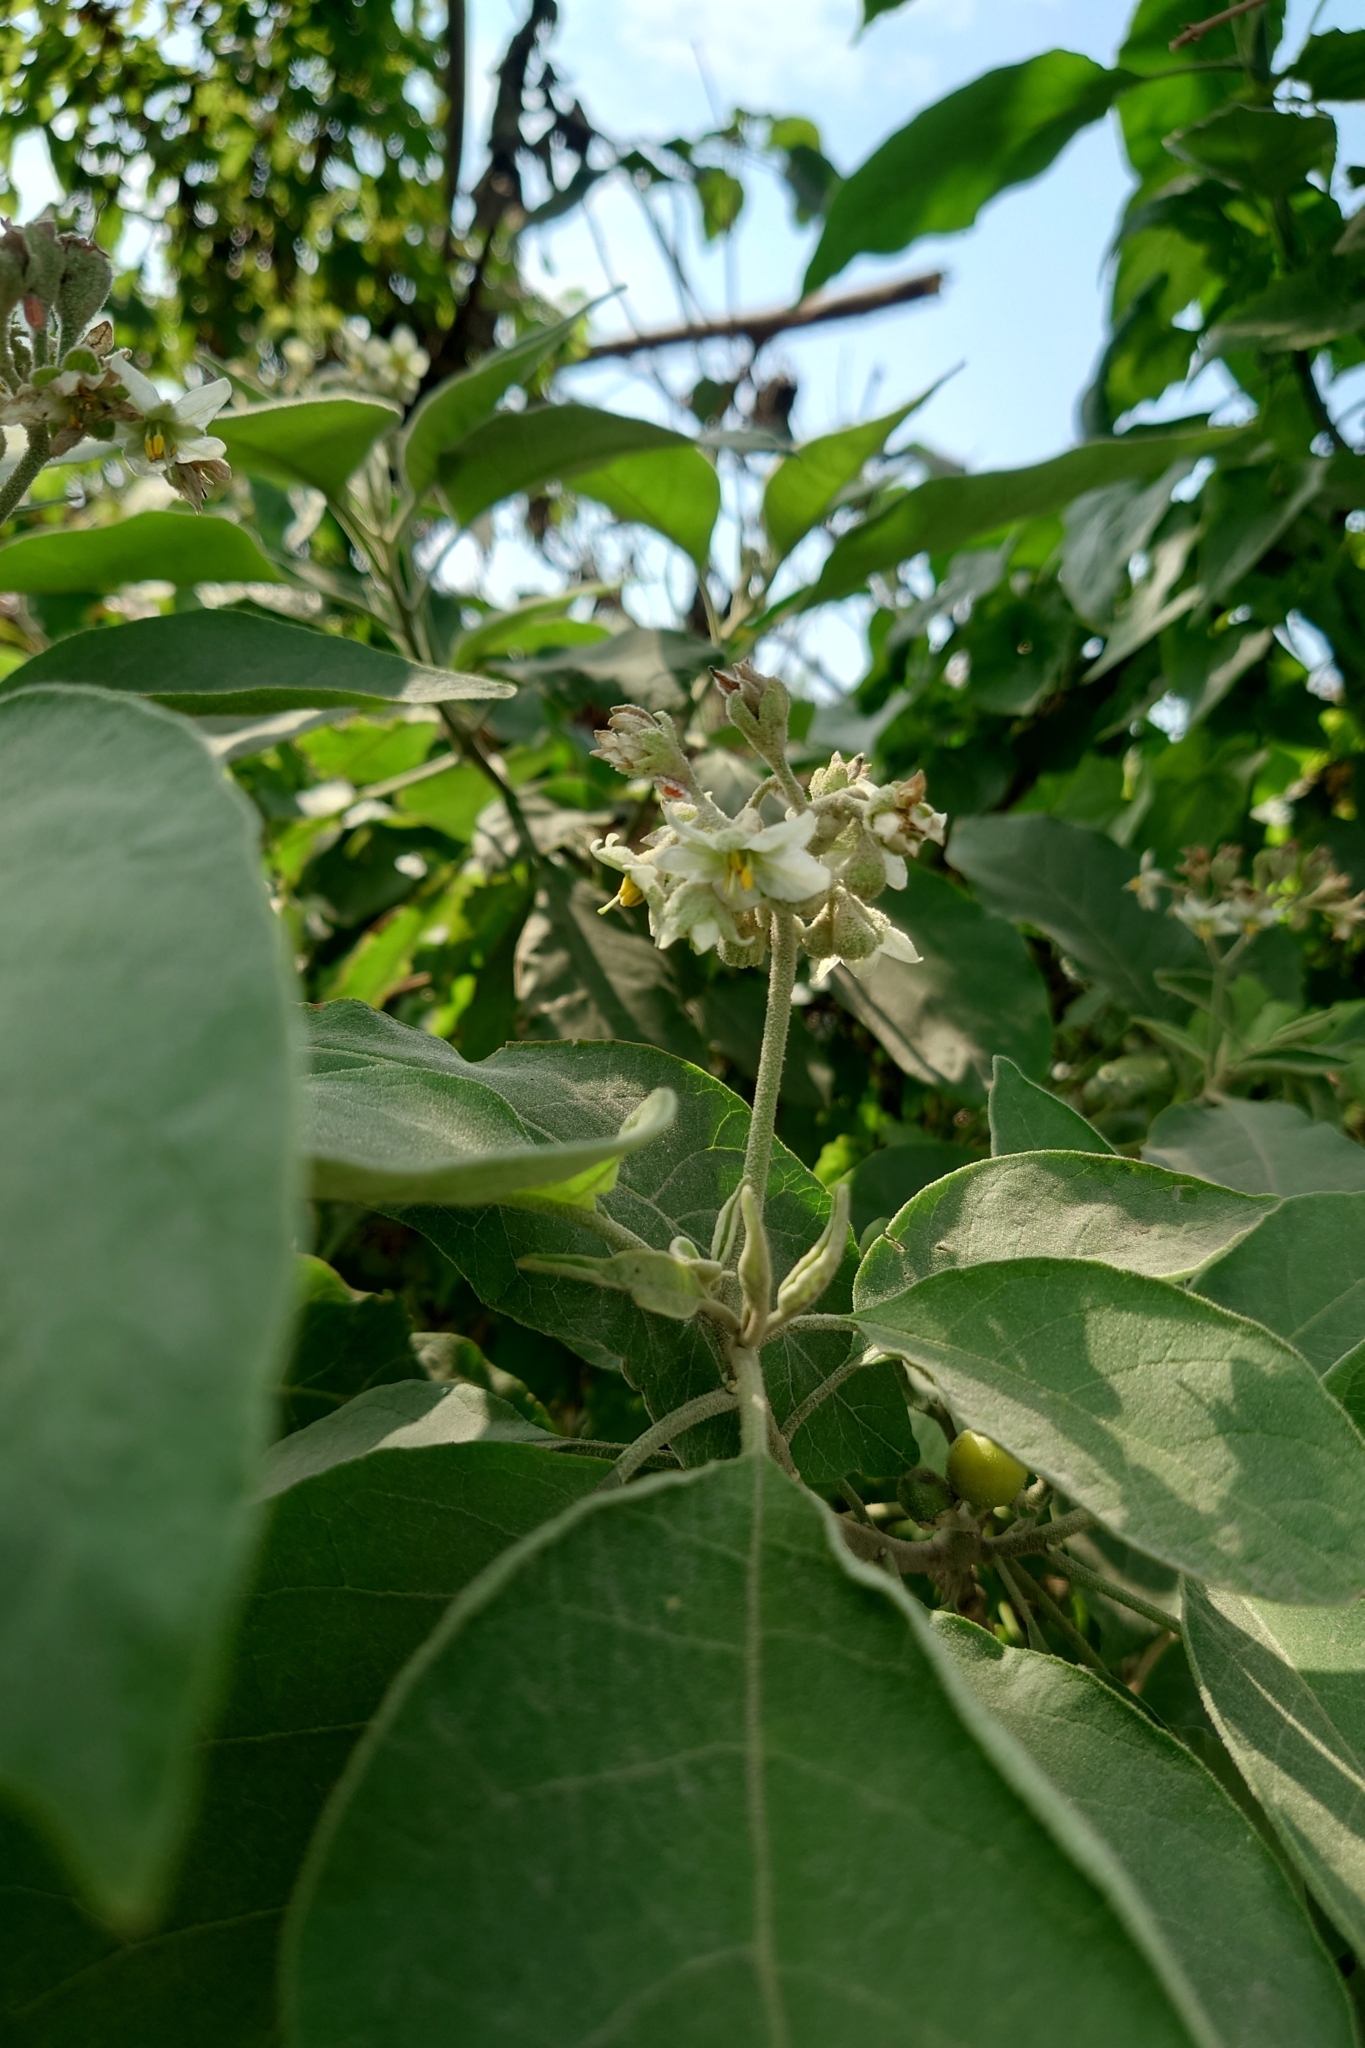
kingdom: Plantae
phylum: Tracheophyta
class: Magnoliopsida
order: Solanales
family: Solanaceae
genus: Solanum
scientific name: Solanum erianthum
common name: Tobacco-tree
